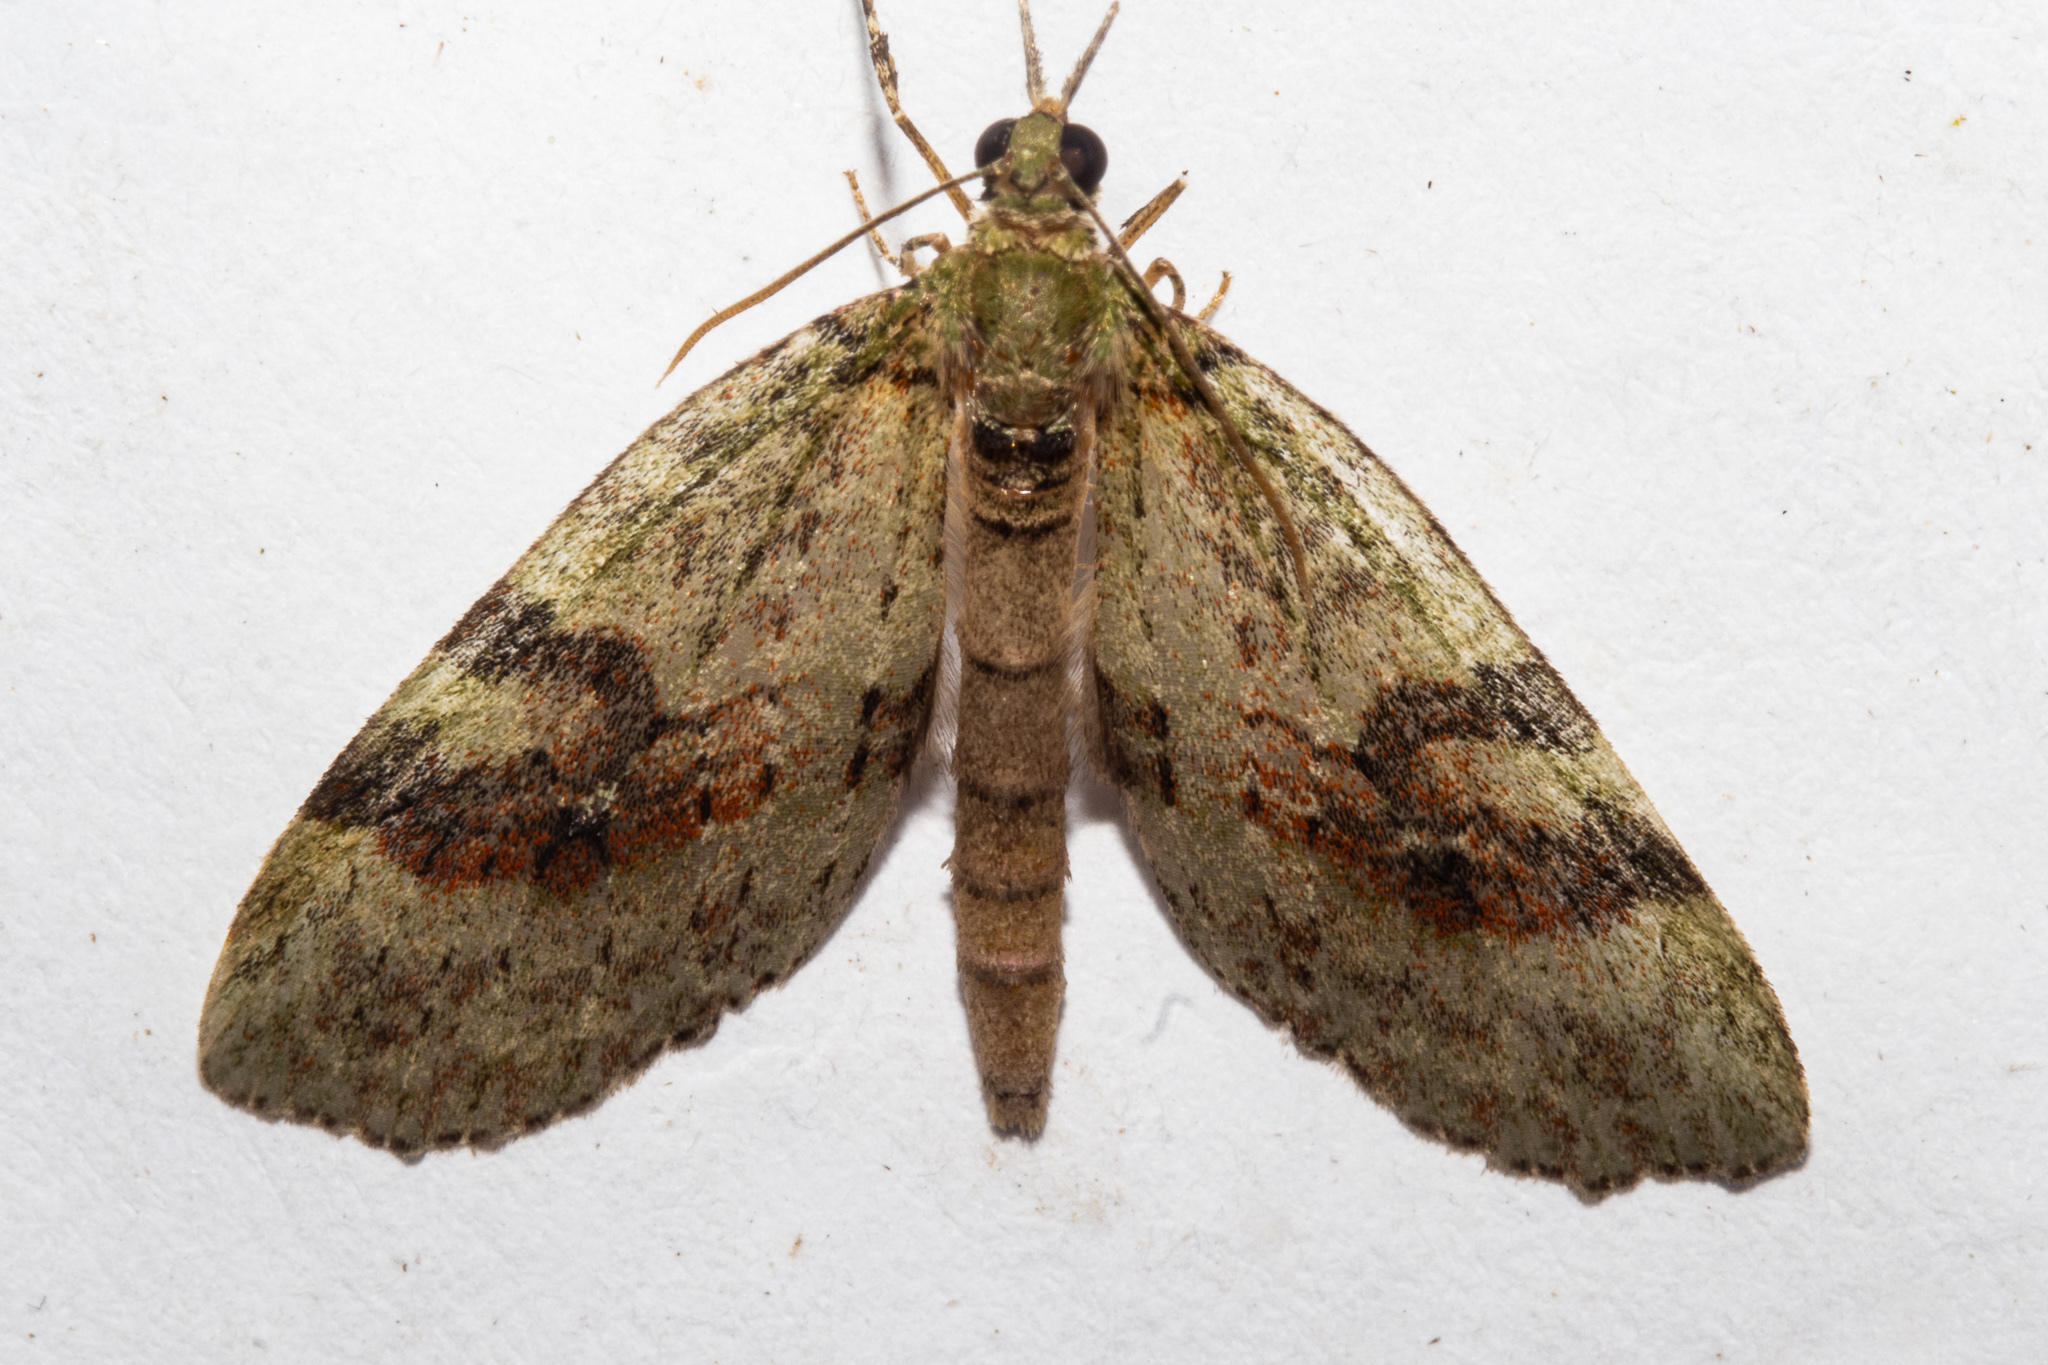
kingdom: Animalia
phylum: Arthropoda
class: Insecta
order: Lepidoptera
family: Geometridae
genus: Tatosoma
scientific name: Tatosoma transitaria
